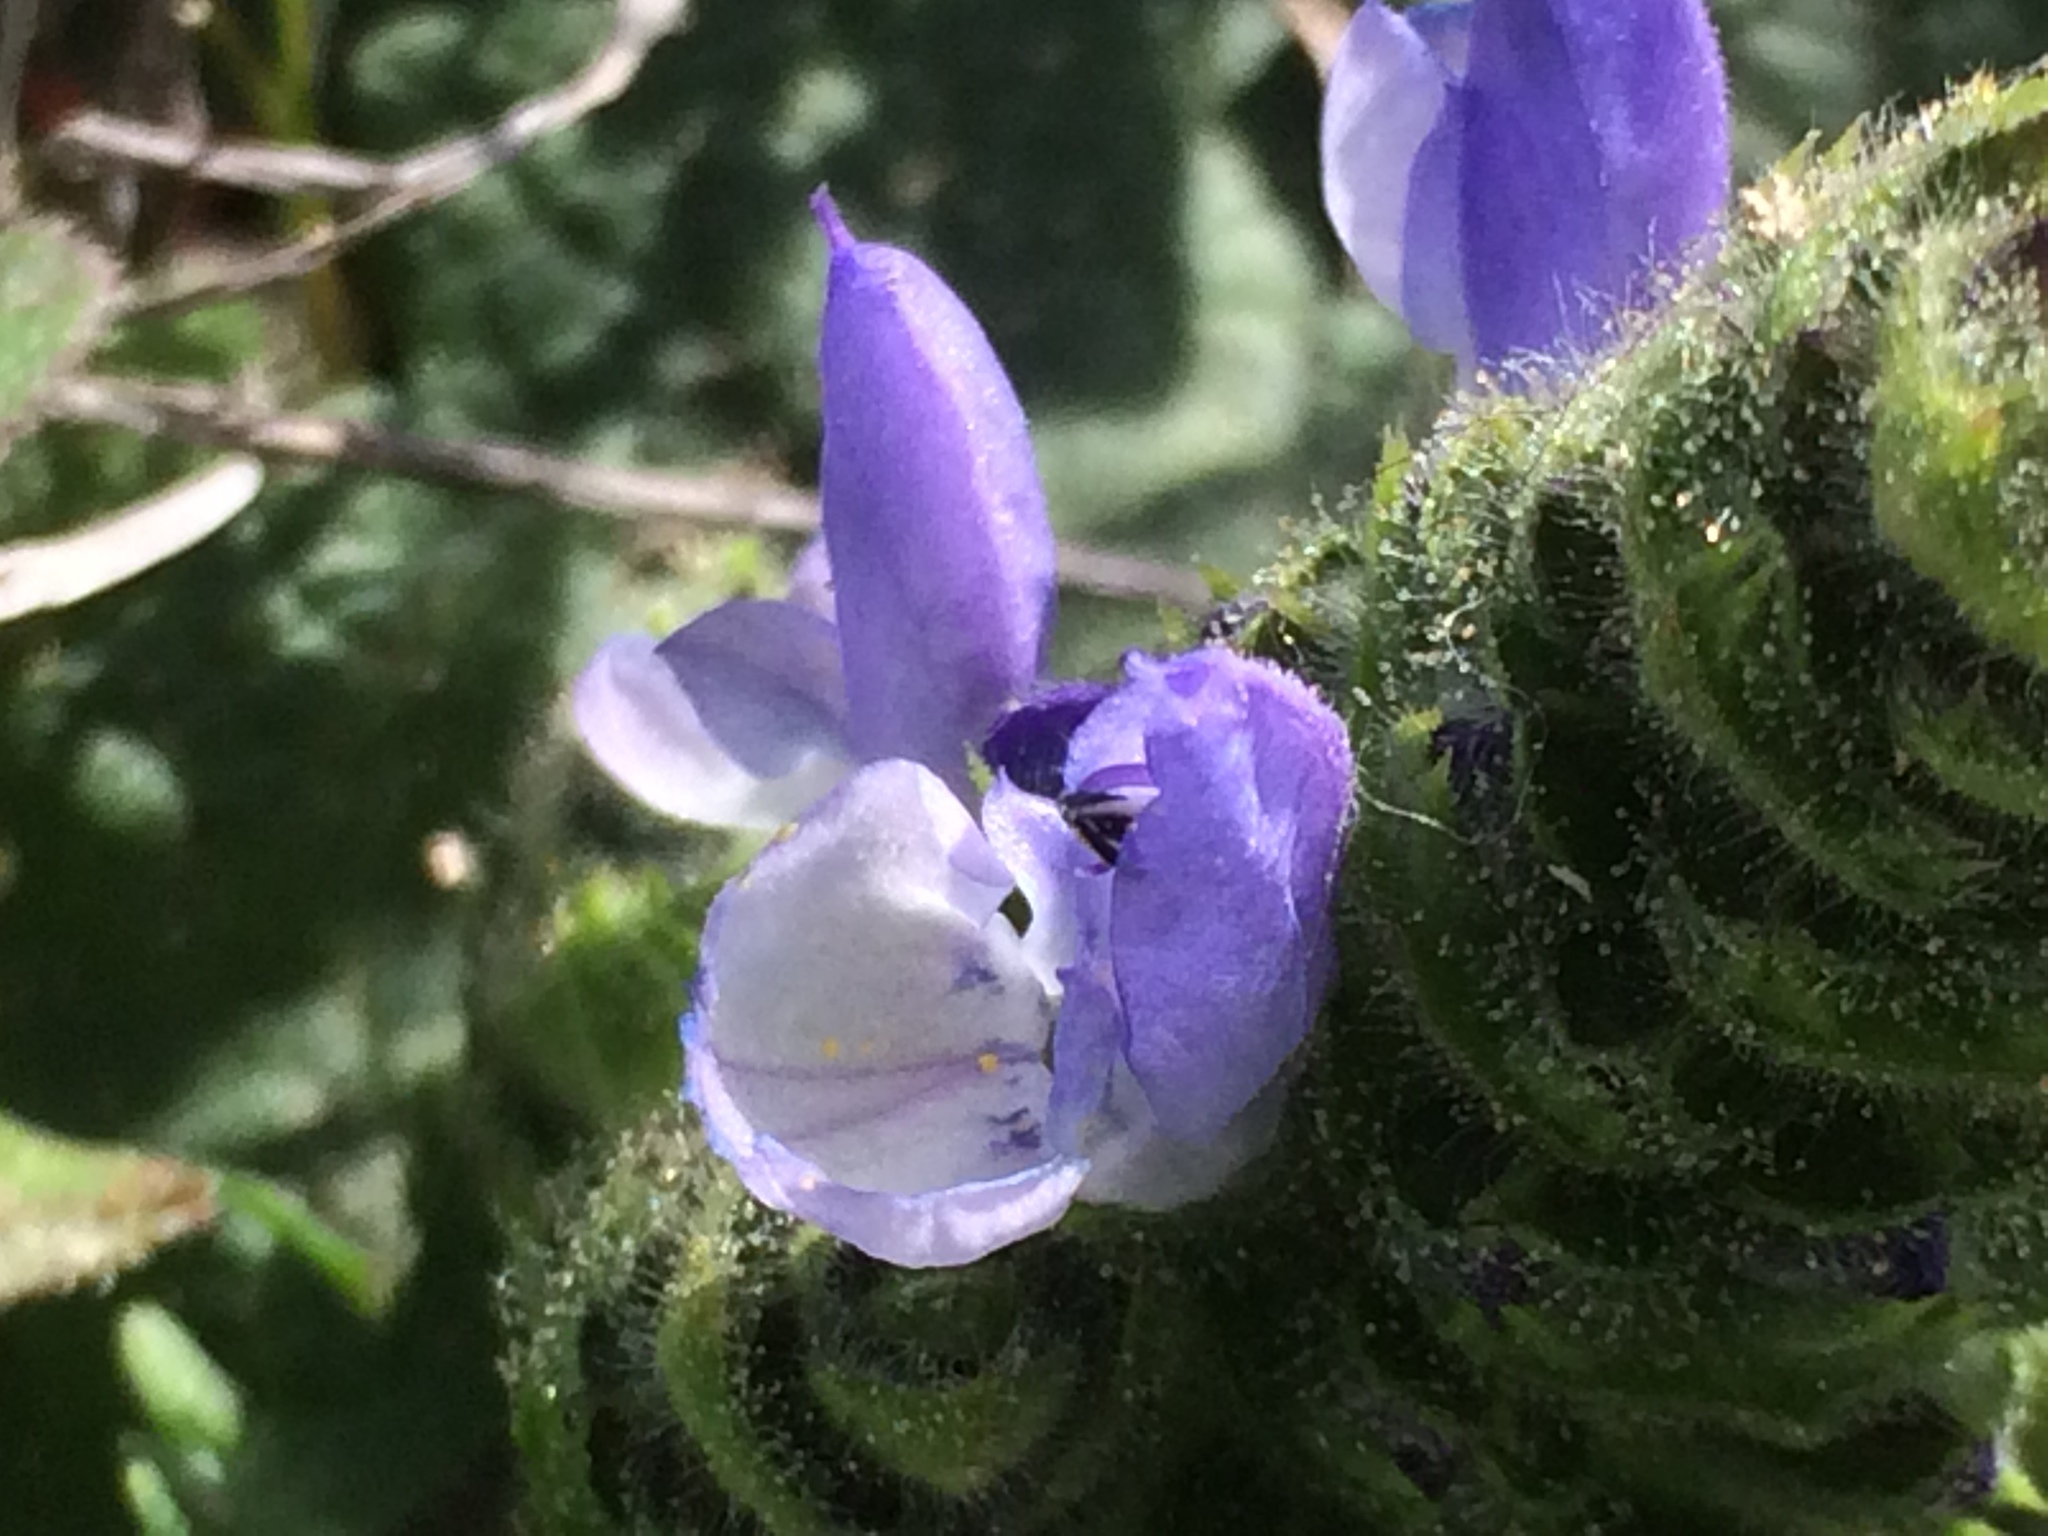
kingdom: Plantae
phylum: Tracheophyta
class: Magnoliopsida
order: Lamiales
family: Lamiaceae
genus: Salvia
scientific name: Salvia clandestina
